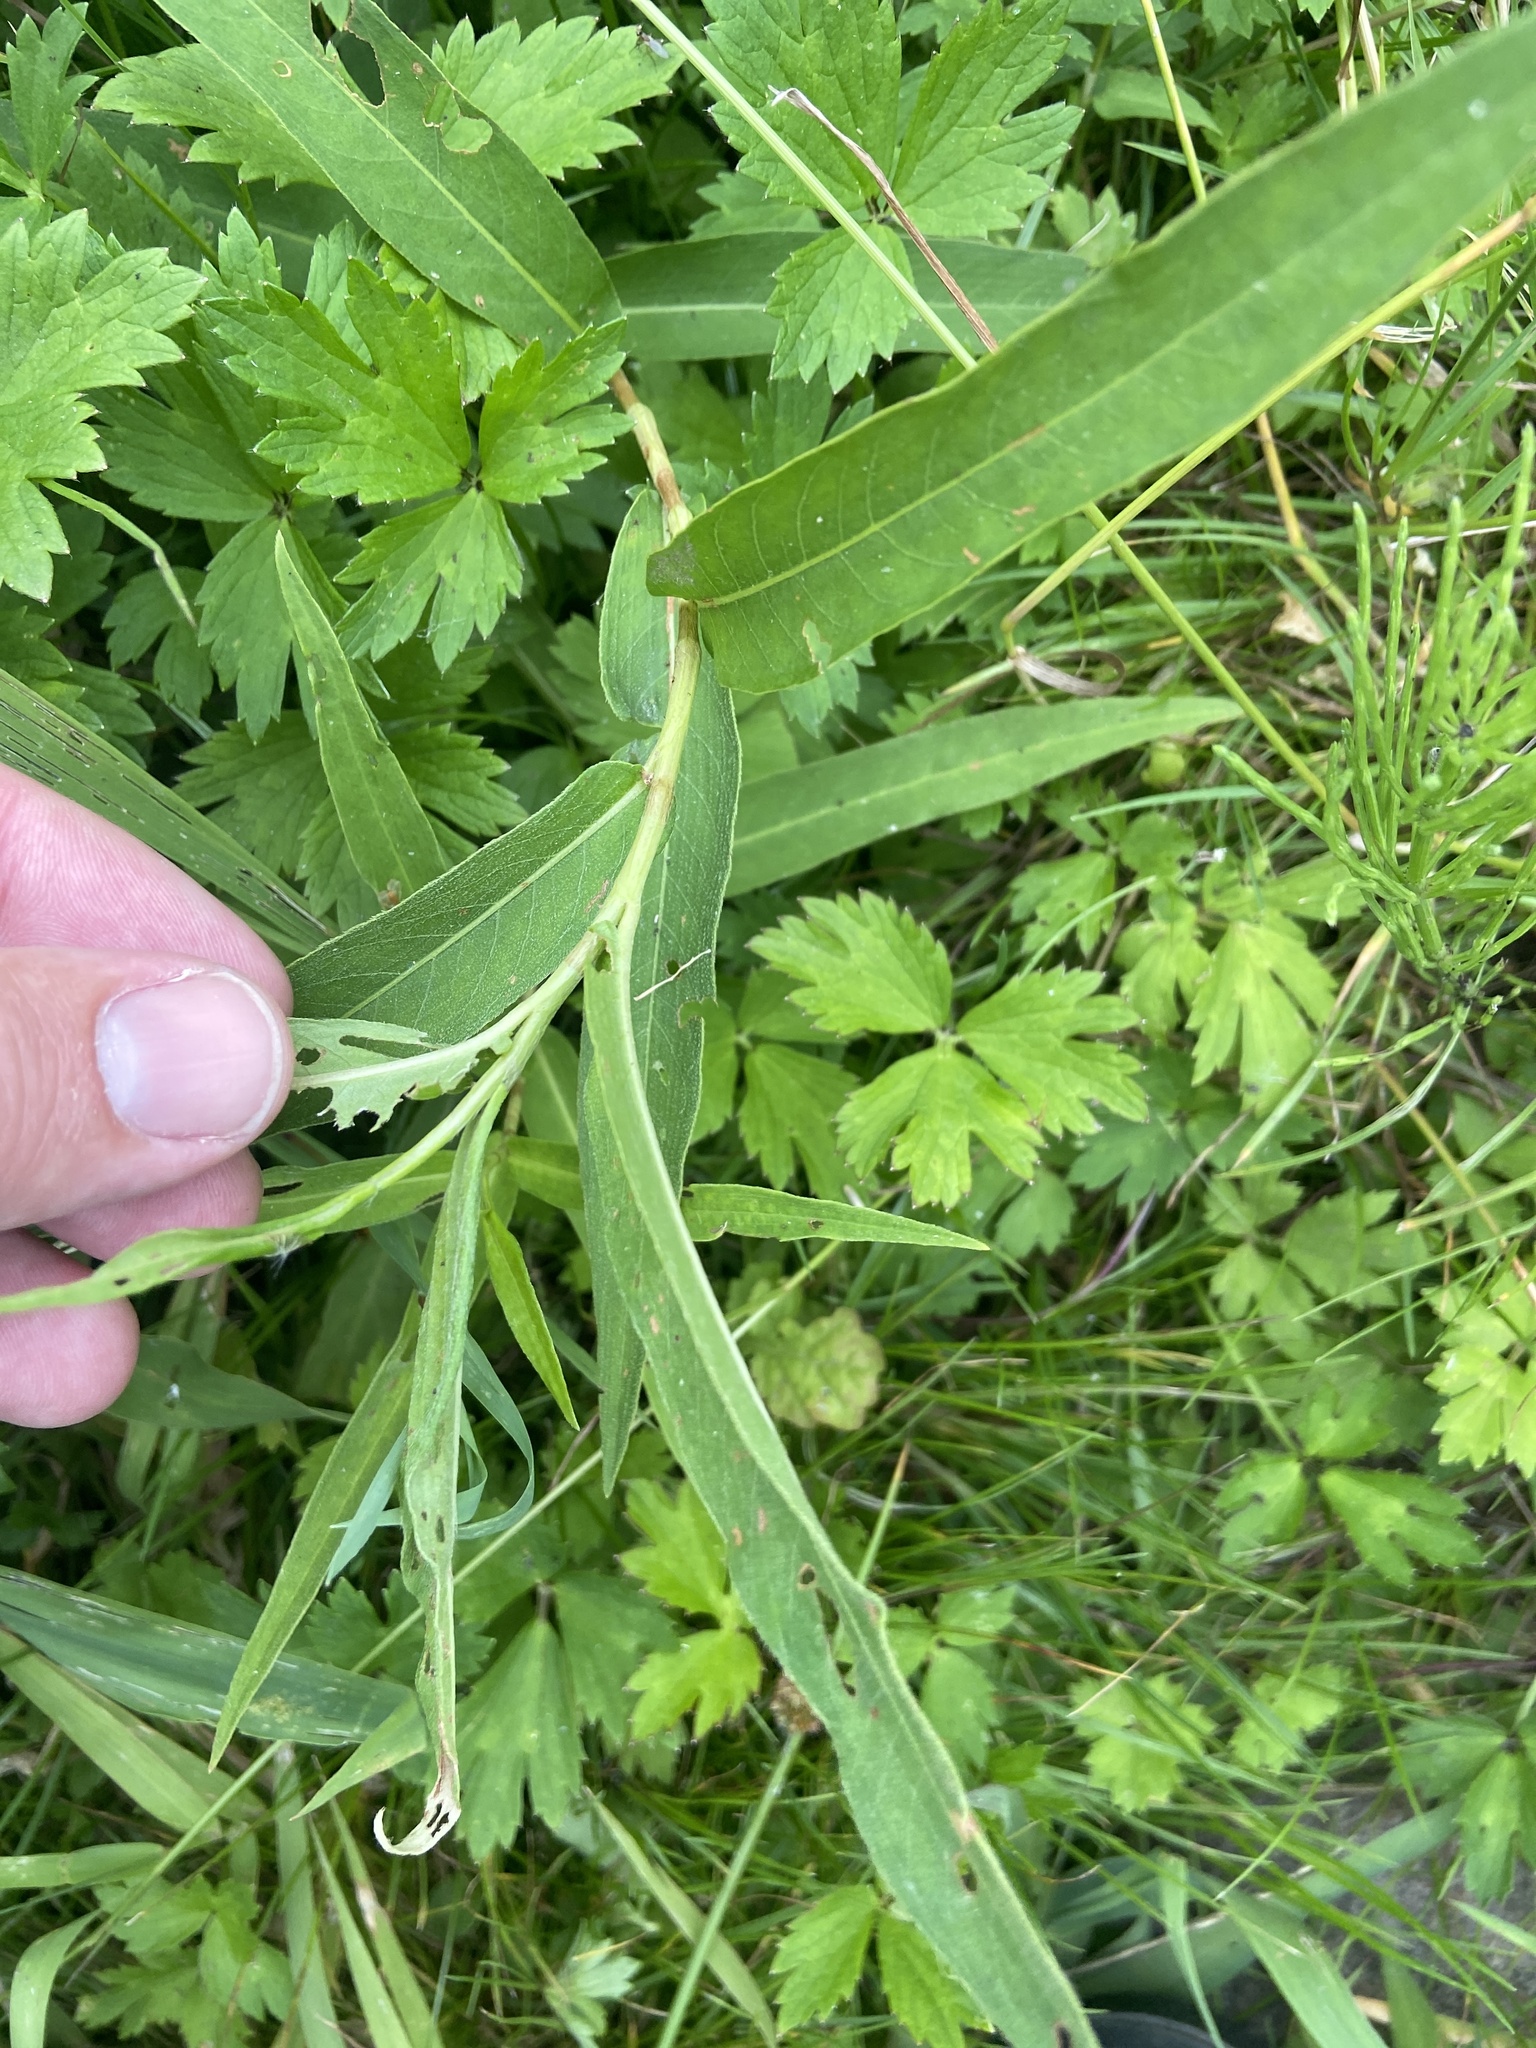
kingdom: Plantae
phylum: Tracheophyta
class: Magnoliopsida
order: Caryophyllales
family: Polygonaceae
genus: Persicaria
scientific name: Persicaria amphibia
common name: Amphibious bistort
